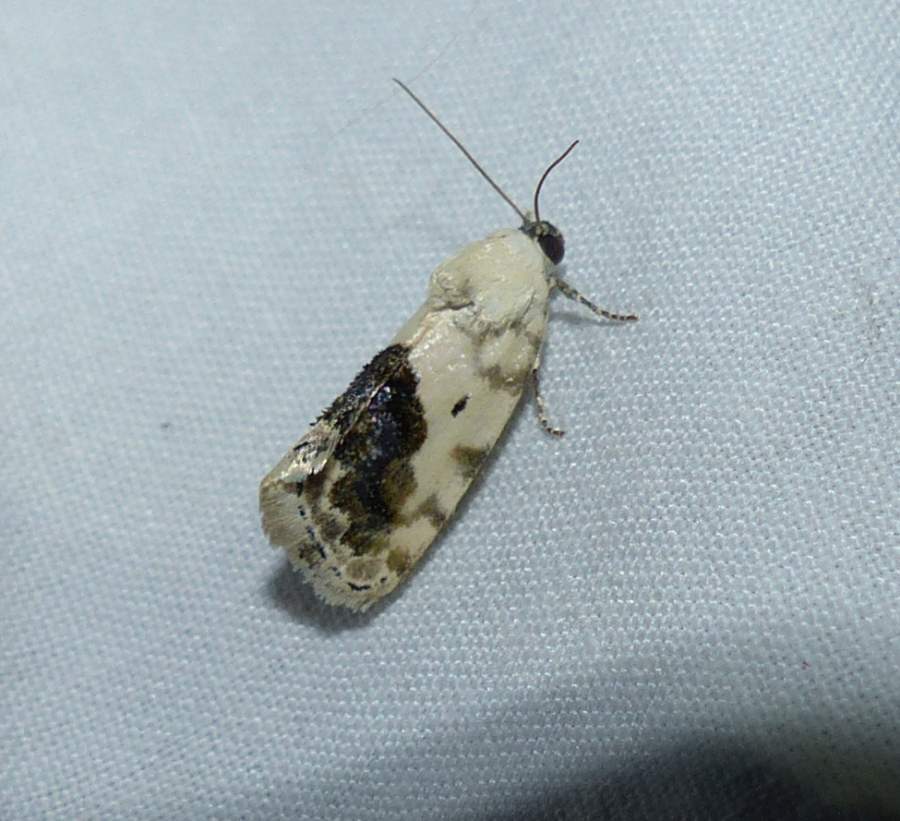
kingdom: Animalia
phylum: Arthropoda
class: Insecta
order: Lepidoptera
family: Noctuidae
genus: Acontia
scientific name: Acontia erastrioides
